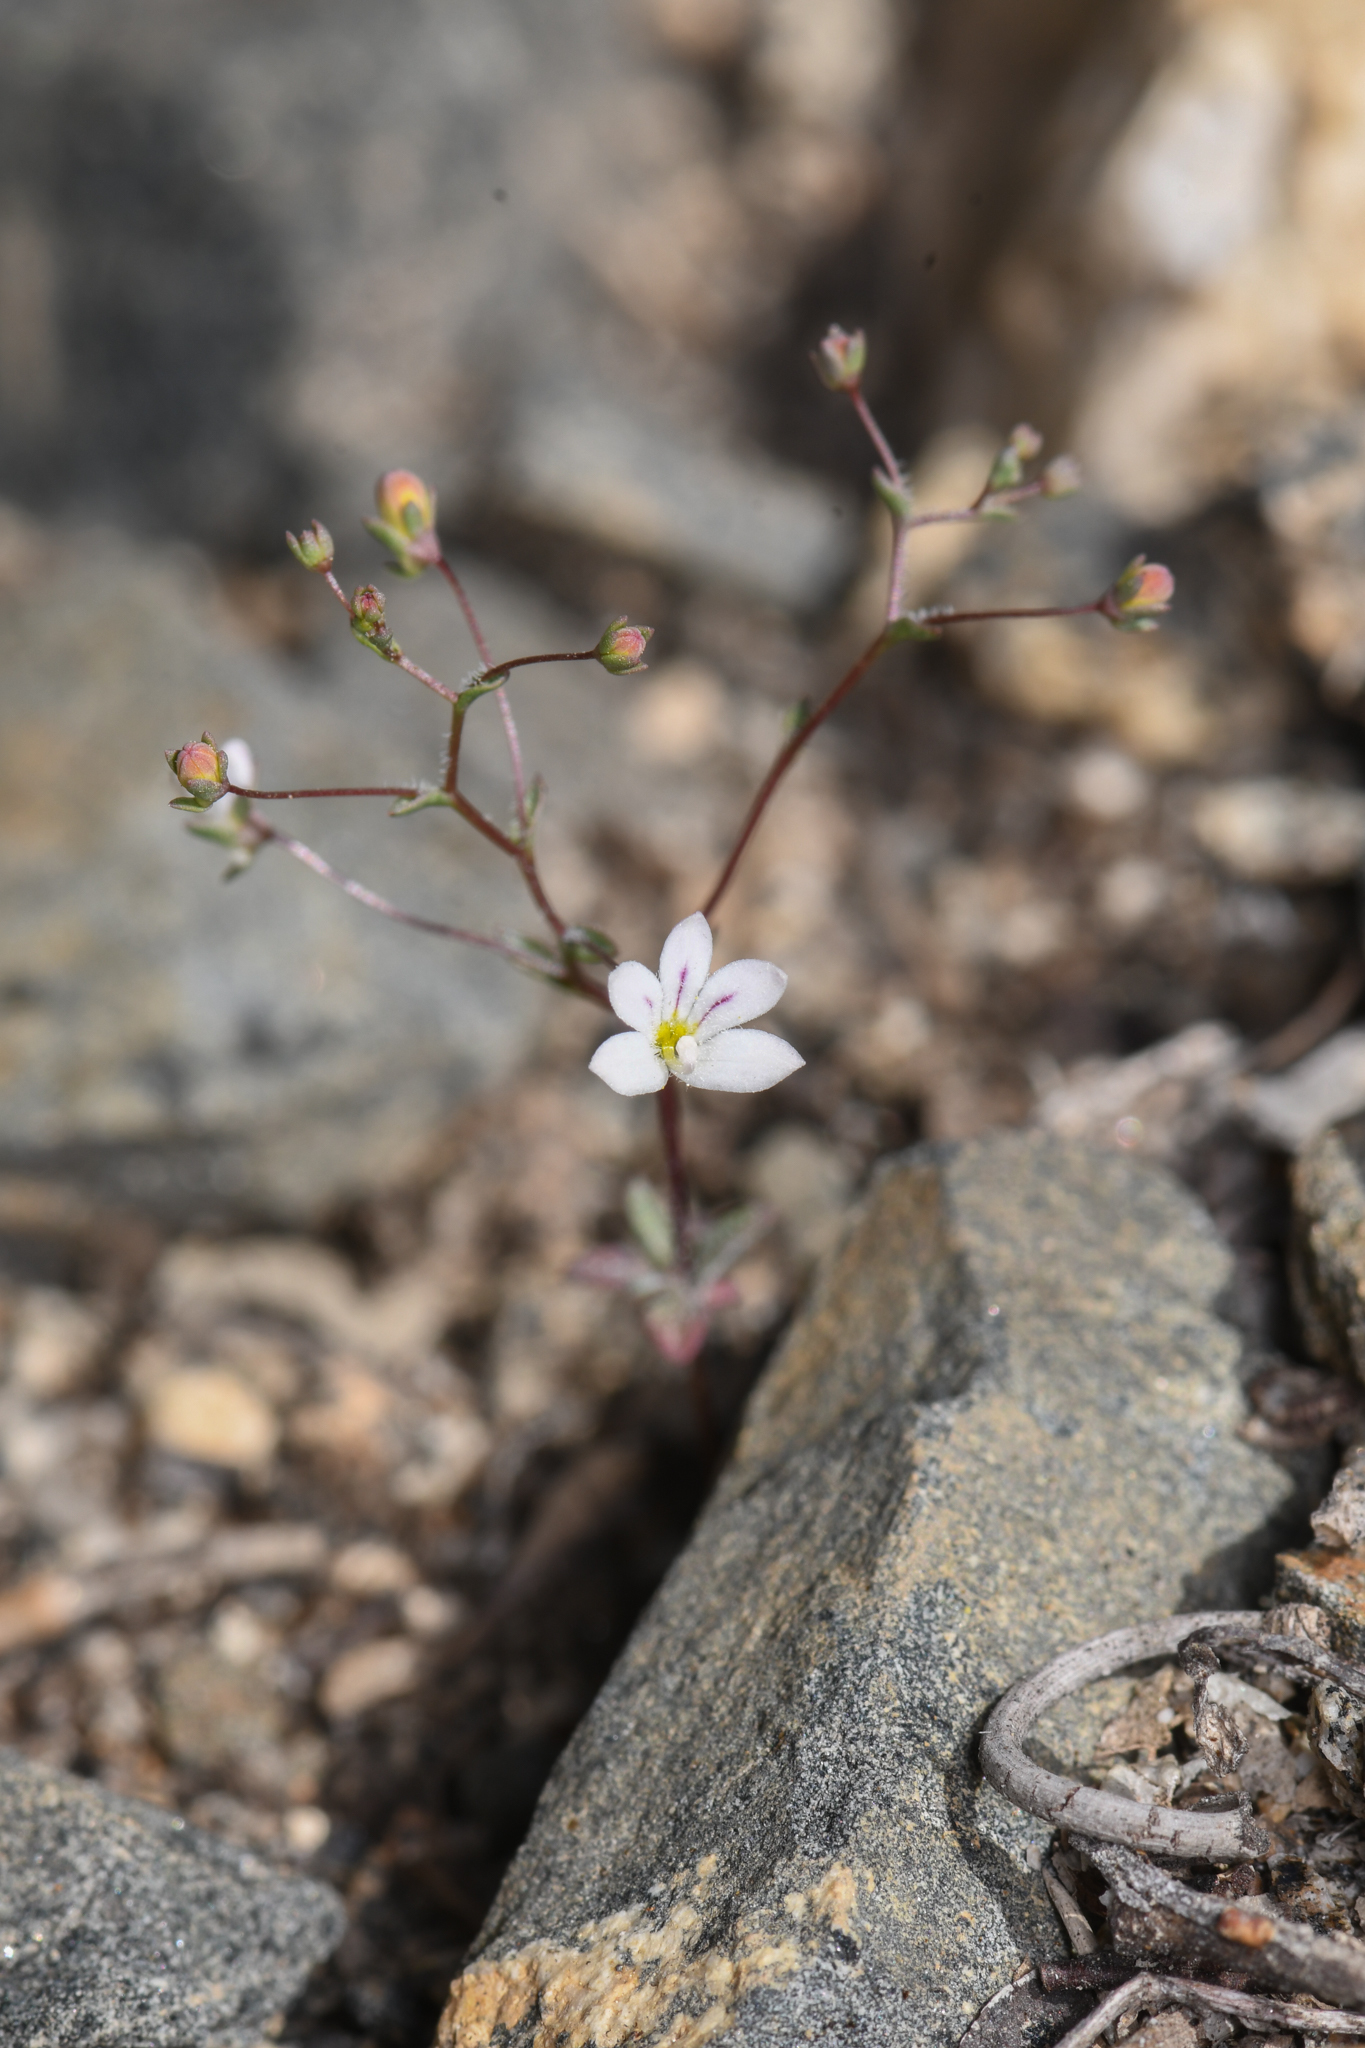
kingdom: Plantae
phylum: Tracheophyta
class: Magnoliopsida
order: Asterales
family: Campanulaceae
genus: Nemacladus
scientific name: Nemacladus calcaratus
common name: Spurred threadplant
